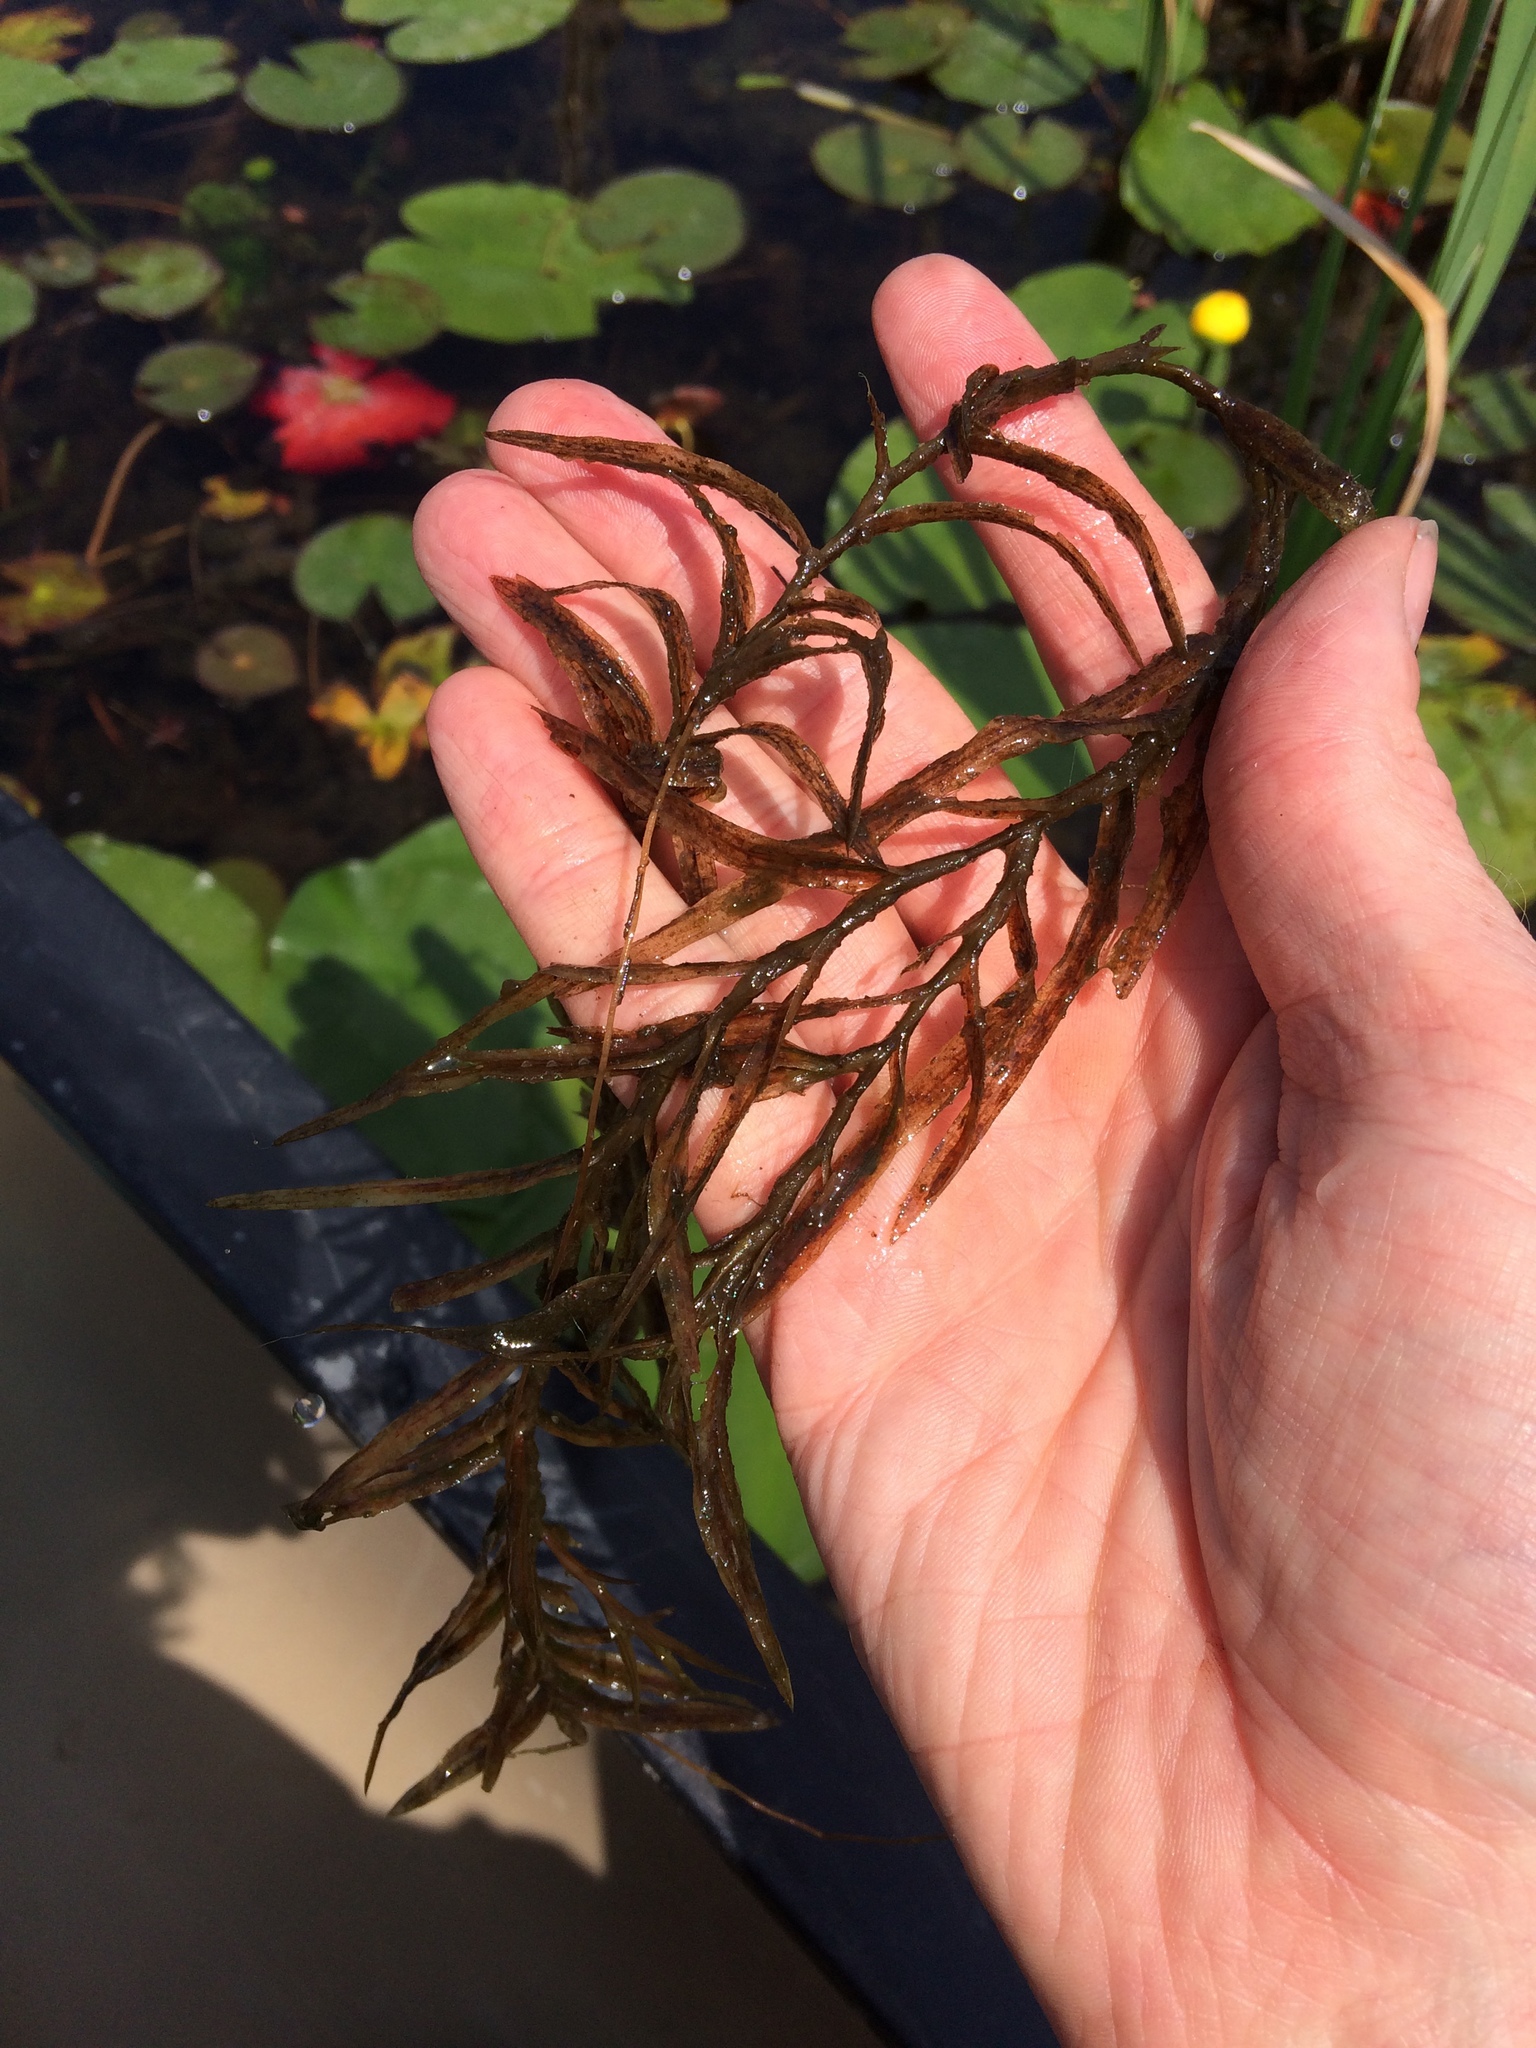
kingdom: Plantae
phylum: Tracheophyta
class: Liliopsida
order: Alismatales
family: Potamogetonaceae
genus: Potamogeton
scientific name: Potamogeton robbinsii
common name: Fern pondweed
